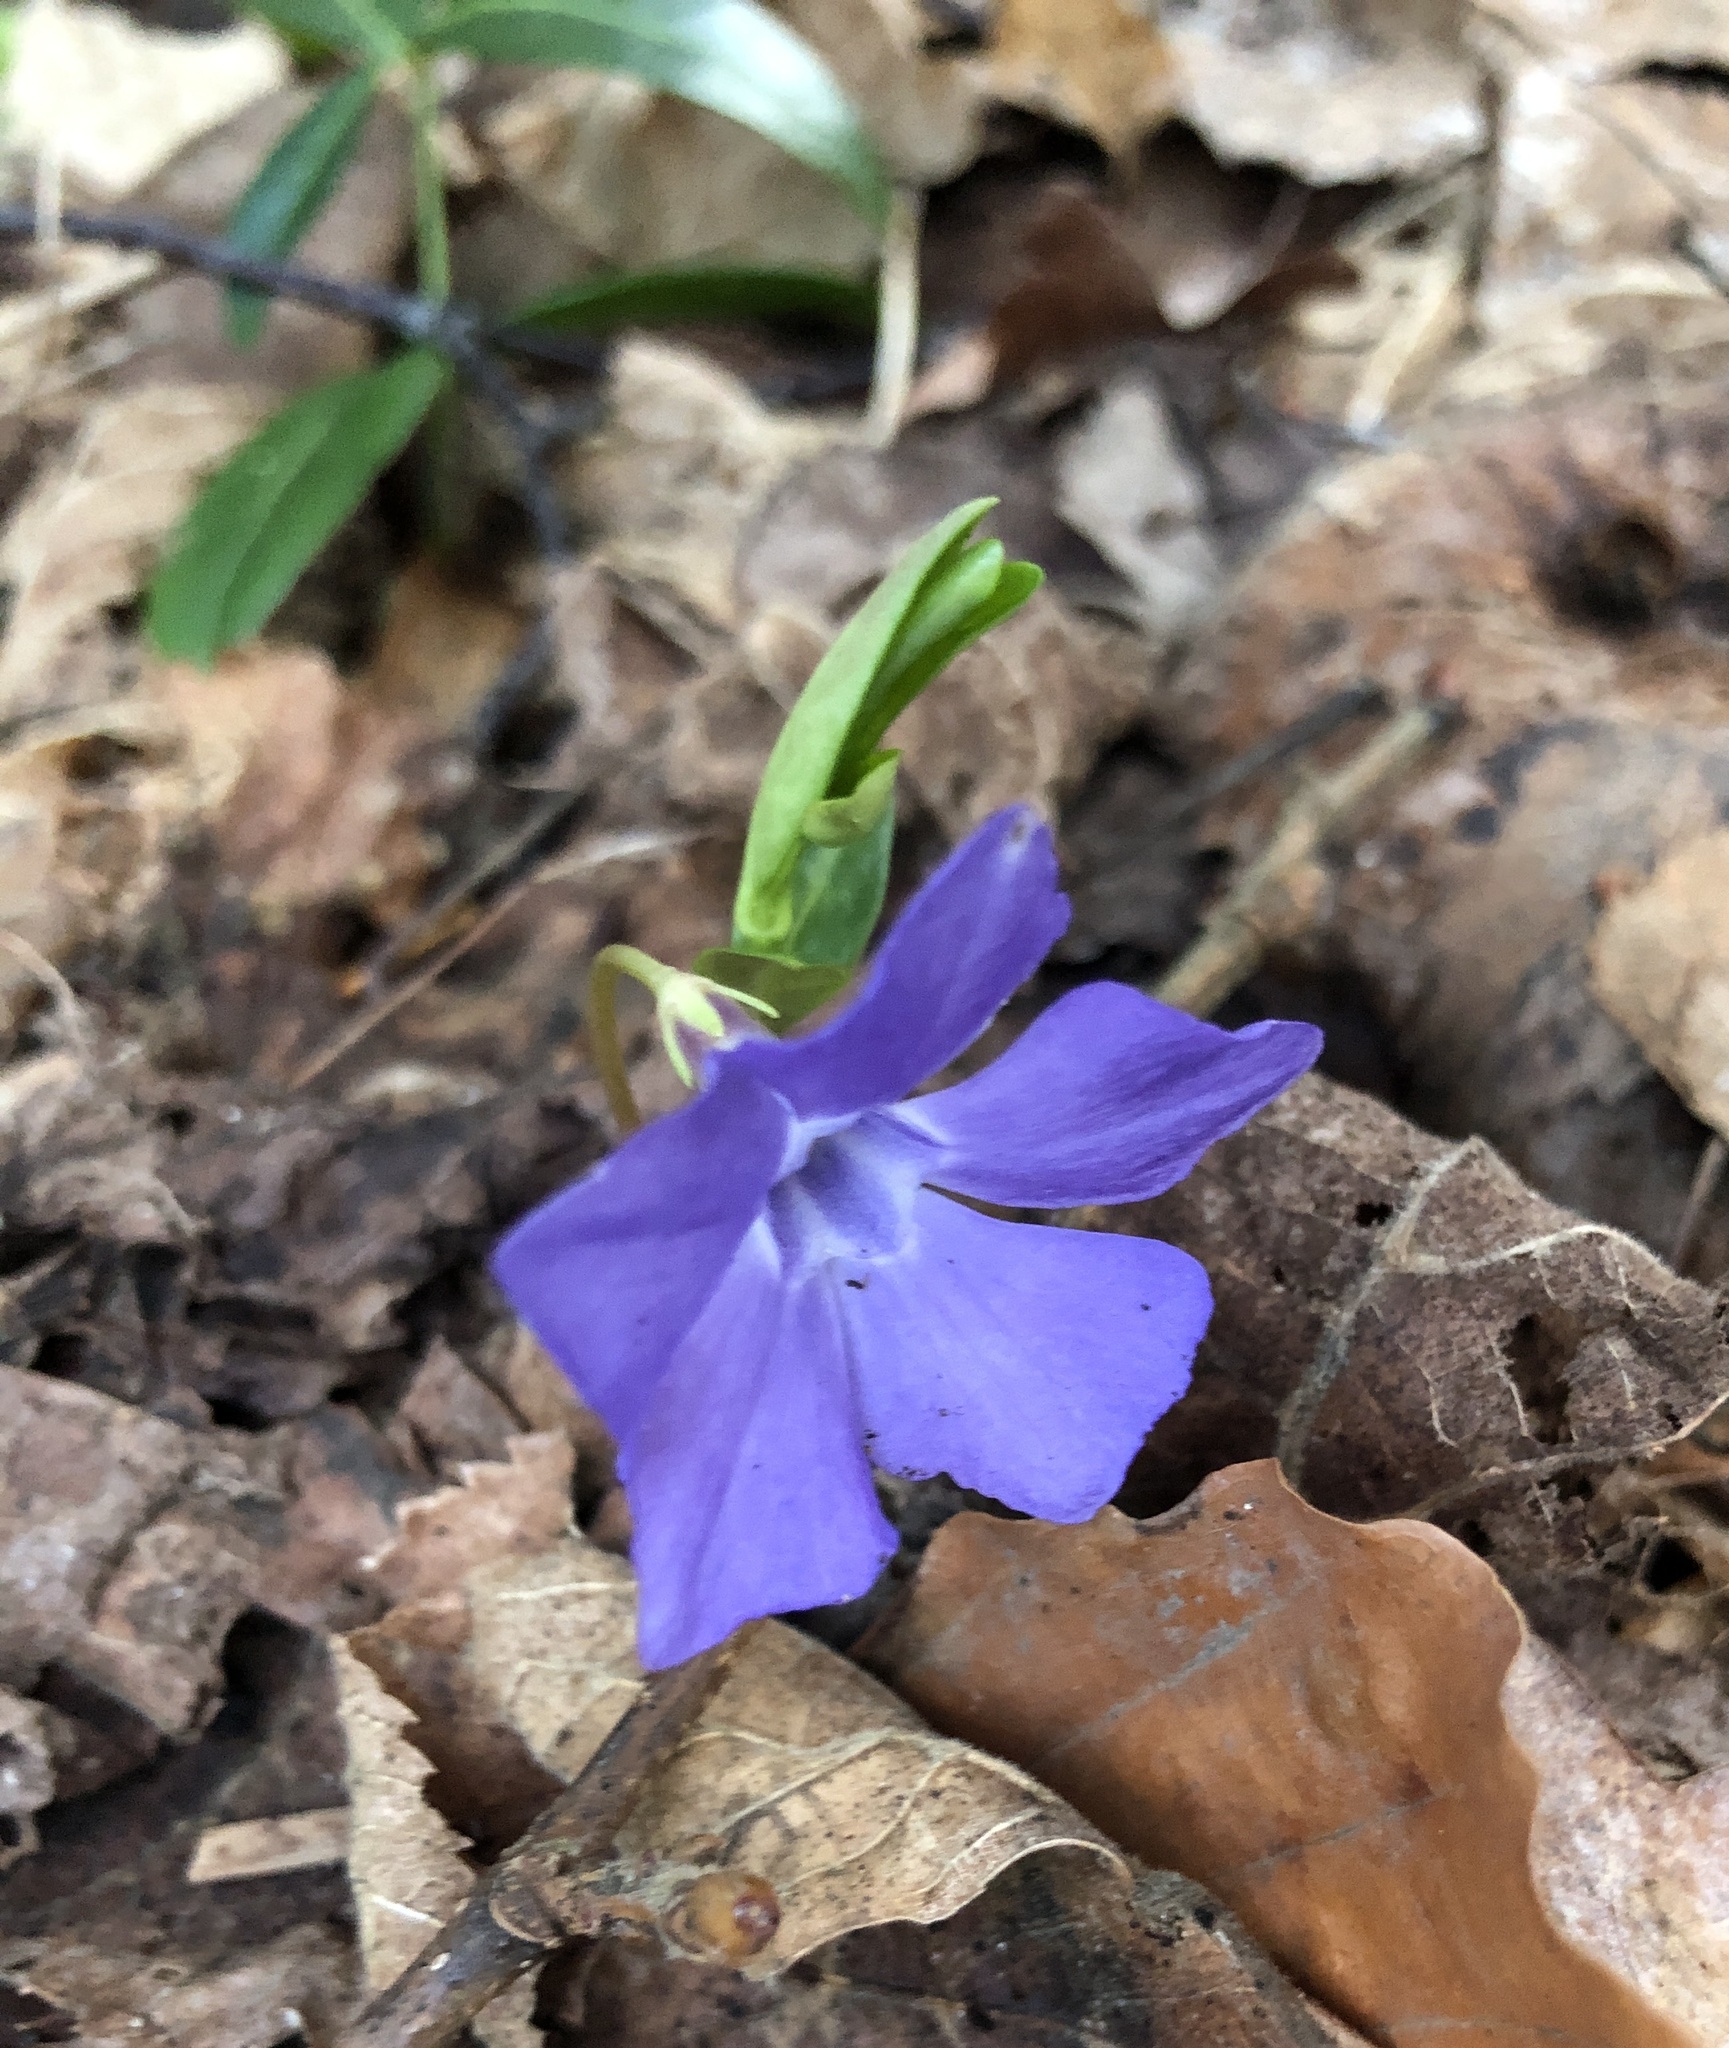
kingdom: Plantae
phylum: Tracheophyta
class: Magnoliopsida
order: Gentianales
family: Apocynaceae
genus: Vinca
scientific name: Vinca minor
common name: Lesser periwinkle
